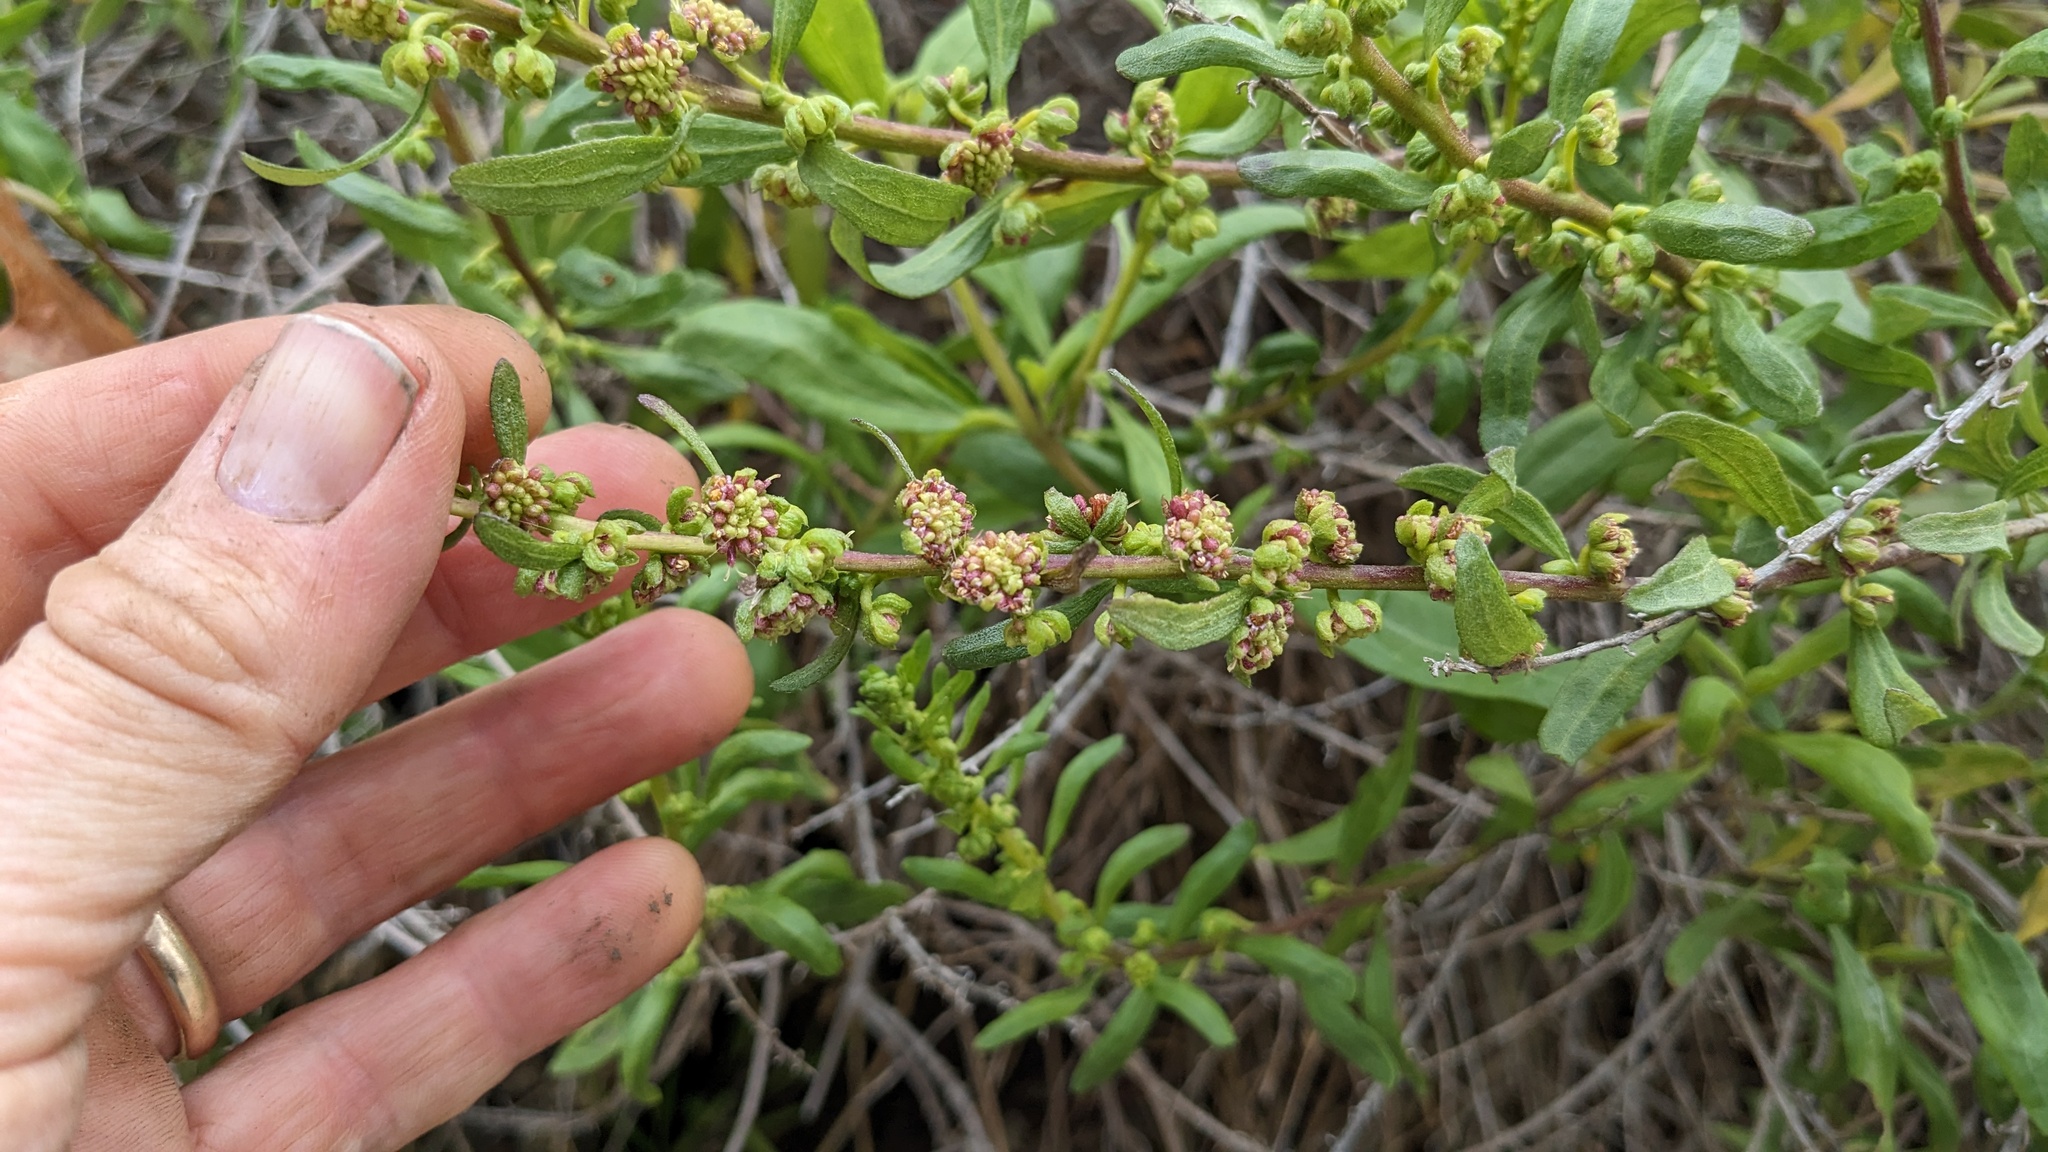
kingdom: Plantae
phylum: Tracheophyta
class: Magnoliopsida
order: Asterales
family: Asteraceae
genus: Iva
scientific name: Iva hayesiana
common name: San diego marsh-elder
